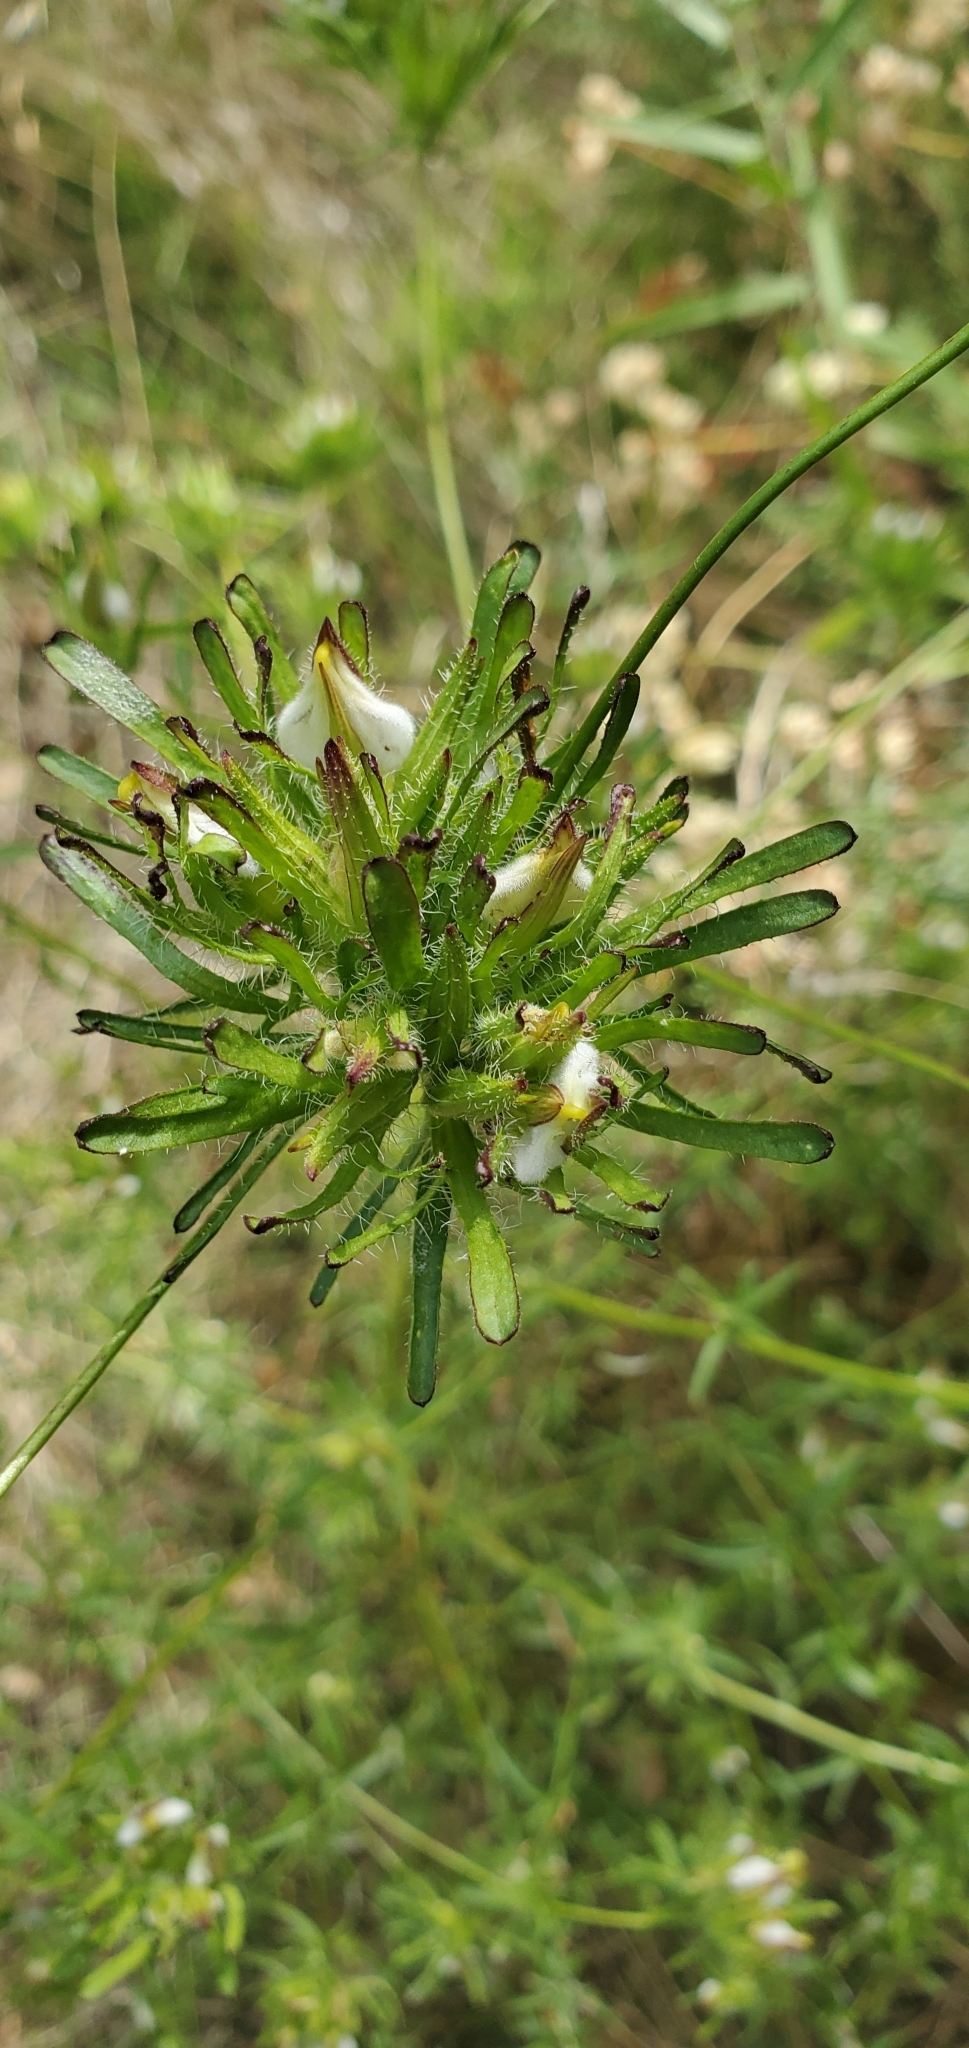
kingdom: Plantae
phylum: Tracheophyta
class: Magnoliopsida
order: Lamiales
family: Orobanchaceae
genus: Cordylanthus
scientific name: Cordylanthus rigidus
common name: Stiff-branch bird's-beak
